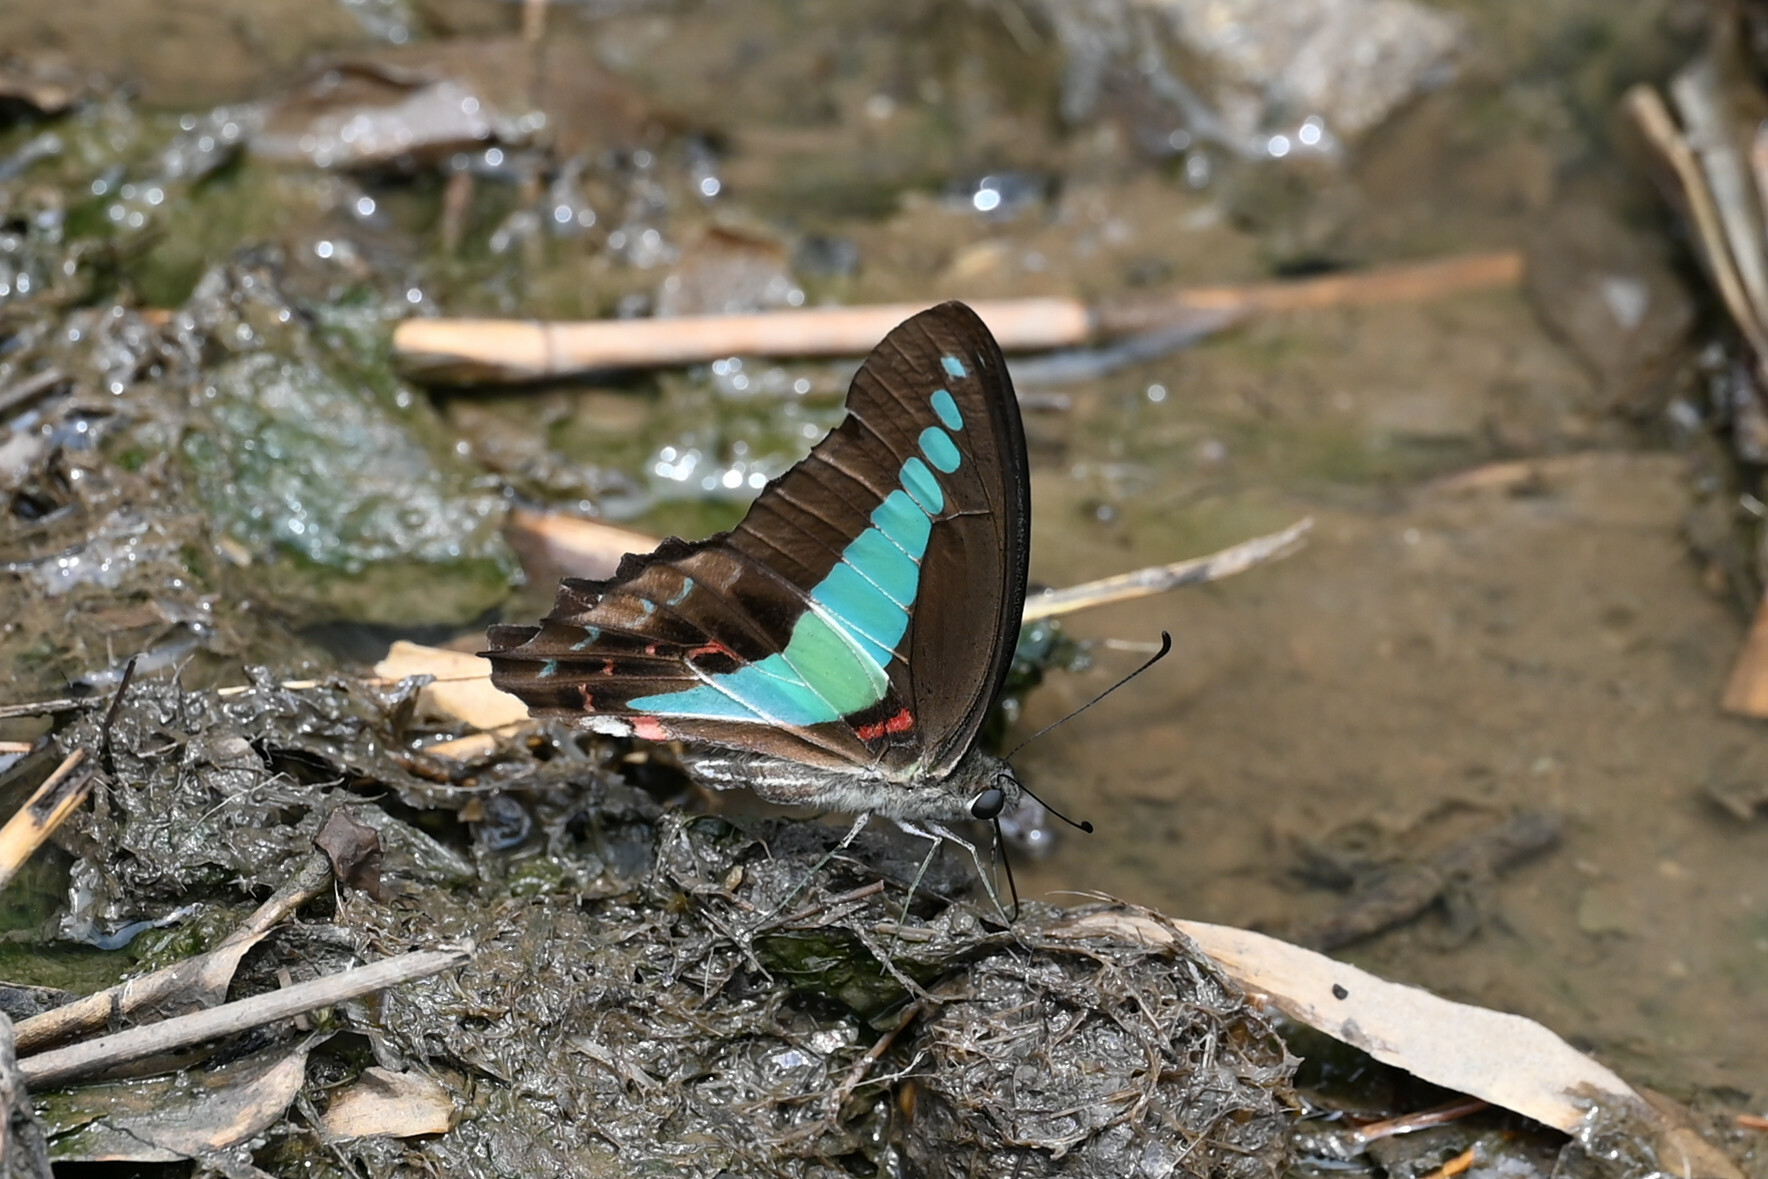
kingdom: Fungi
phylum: Ascomycota
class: Sordariomycetes
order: Microascales
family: Microascaceae
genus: Graphium
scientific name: Graphium sarpedon
